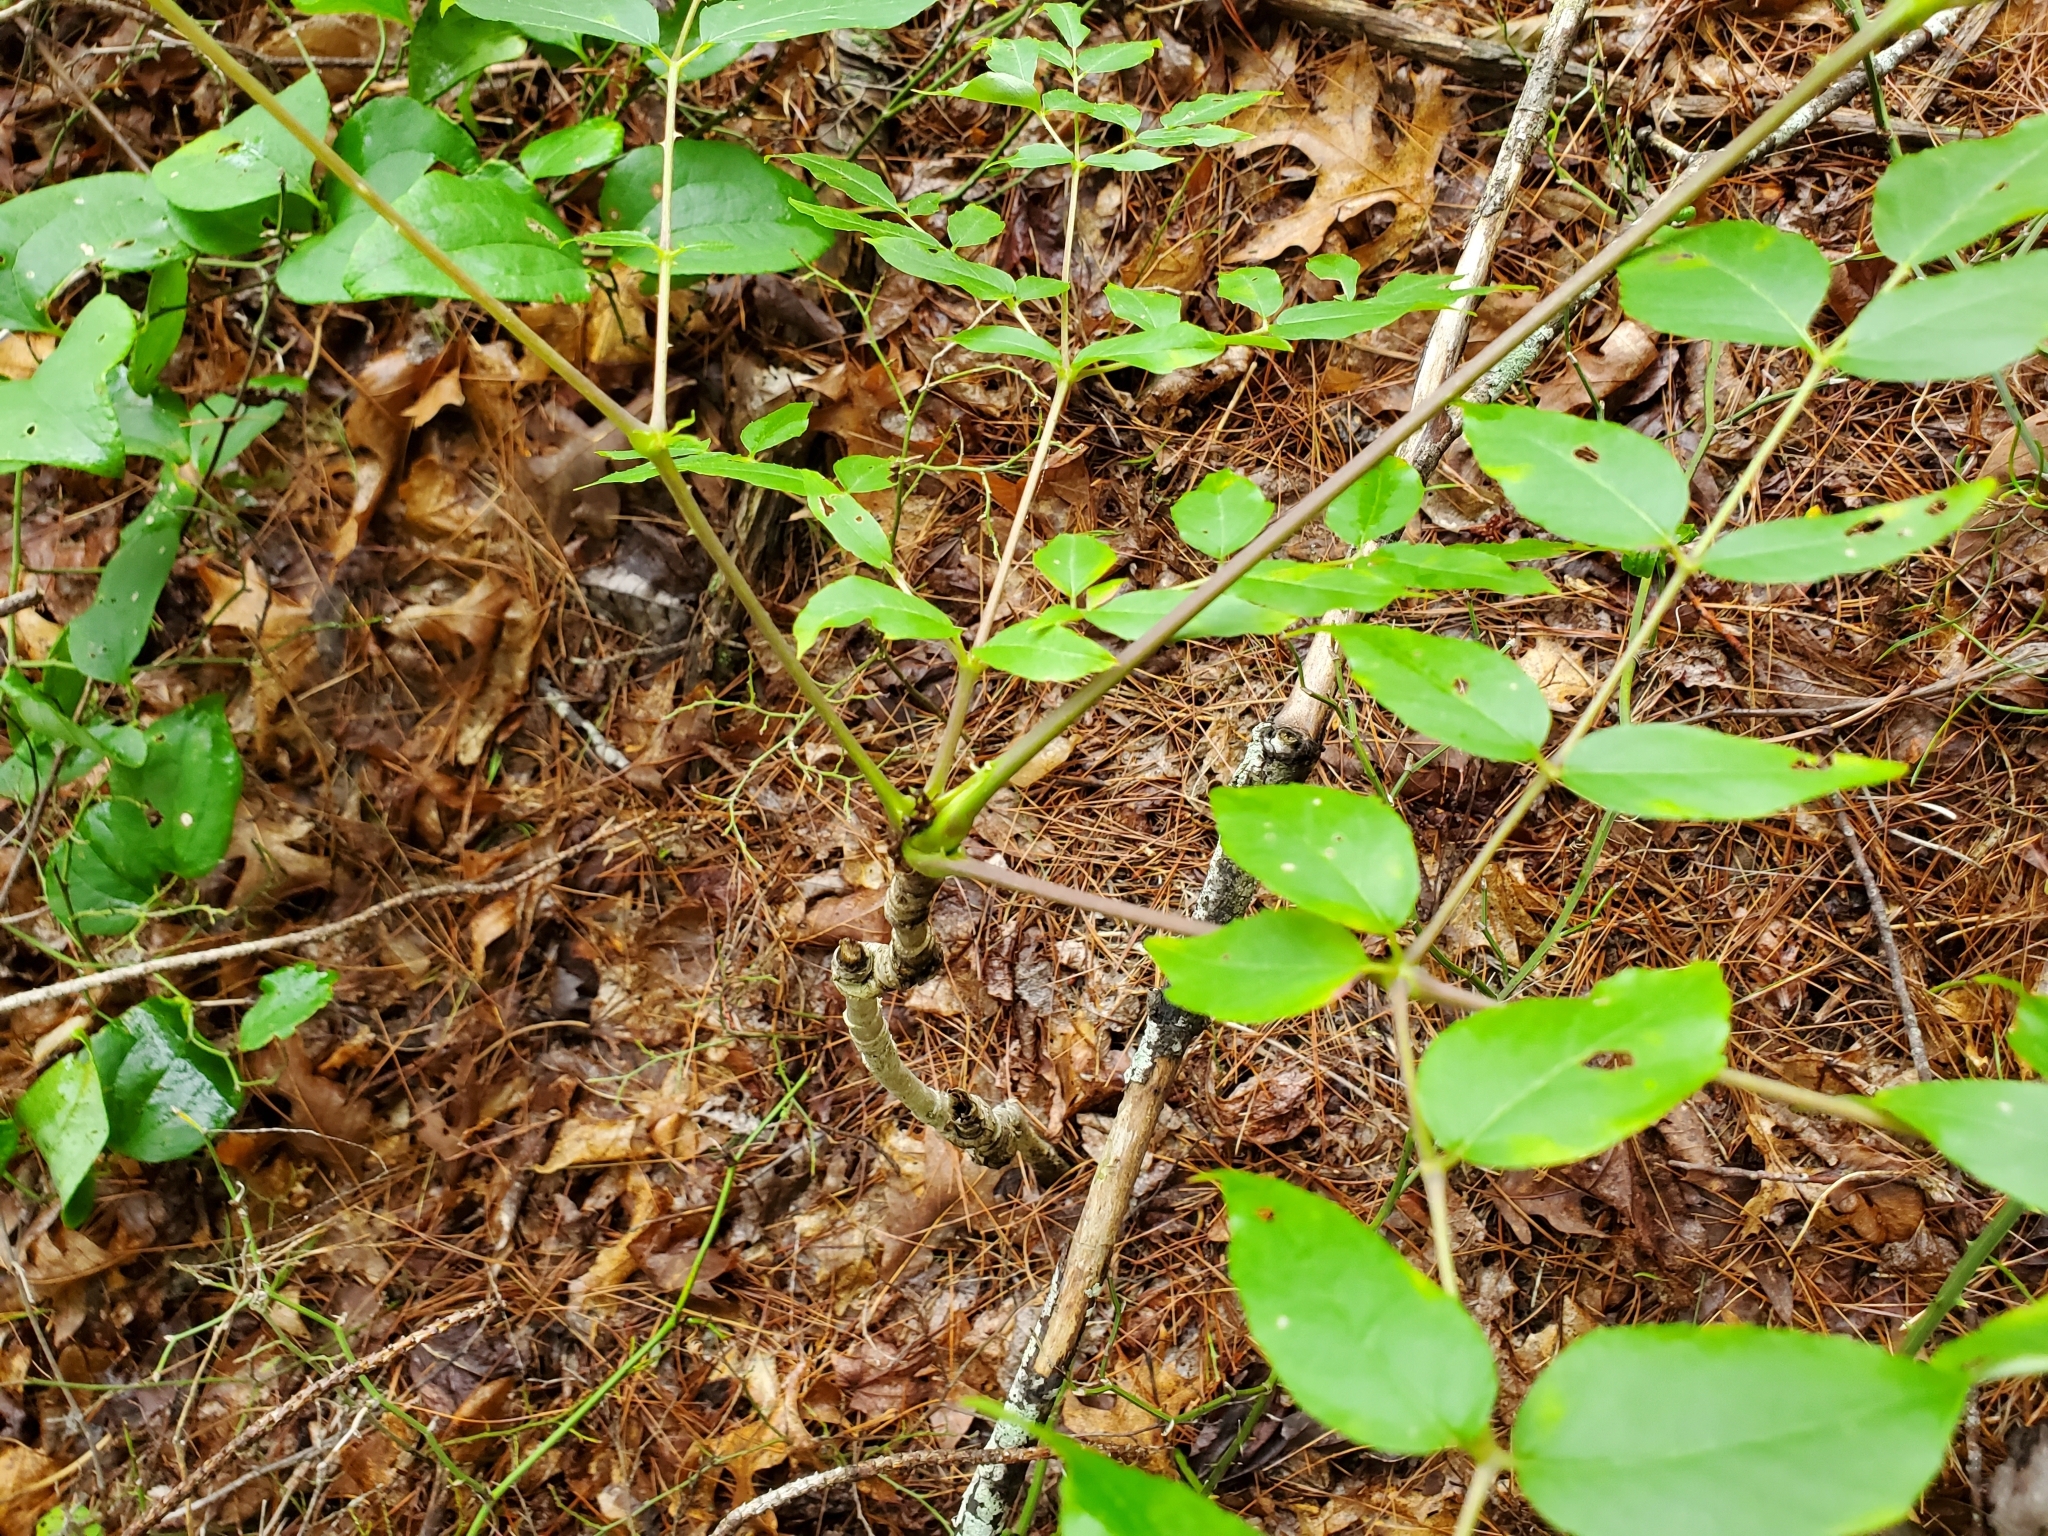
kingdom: Plantae
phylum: Tracheophyta
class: Magnoliopsida
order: Apiales
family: Araliaceae
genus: Aralia
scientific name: Aralia spinosa
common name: Hercules'-club
